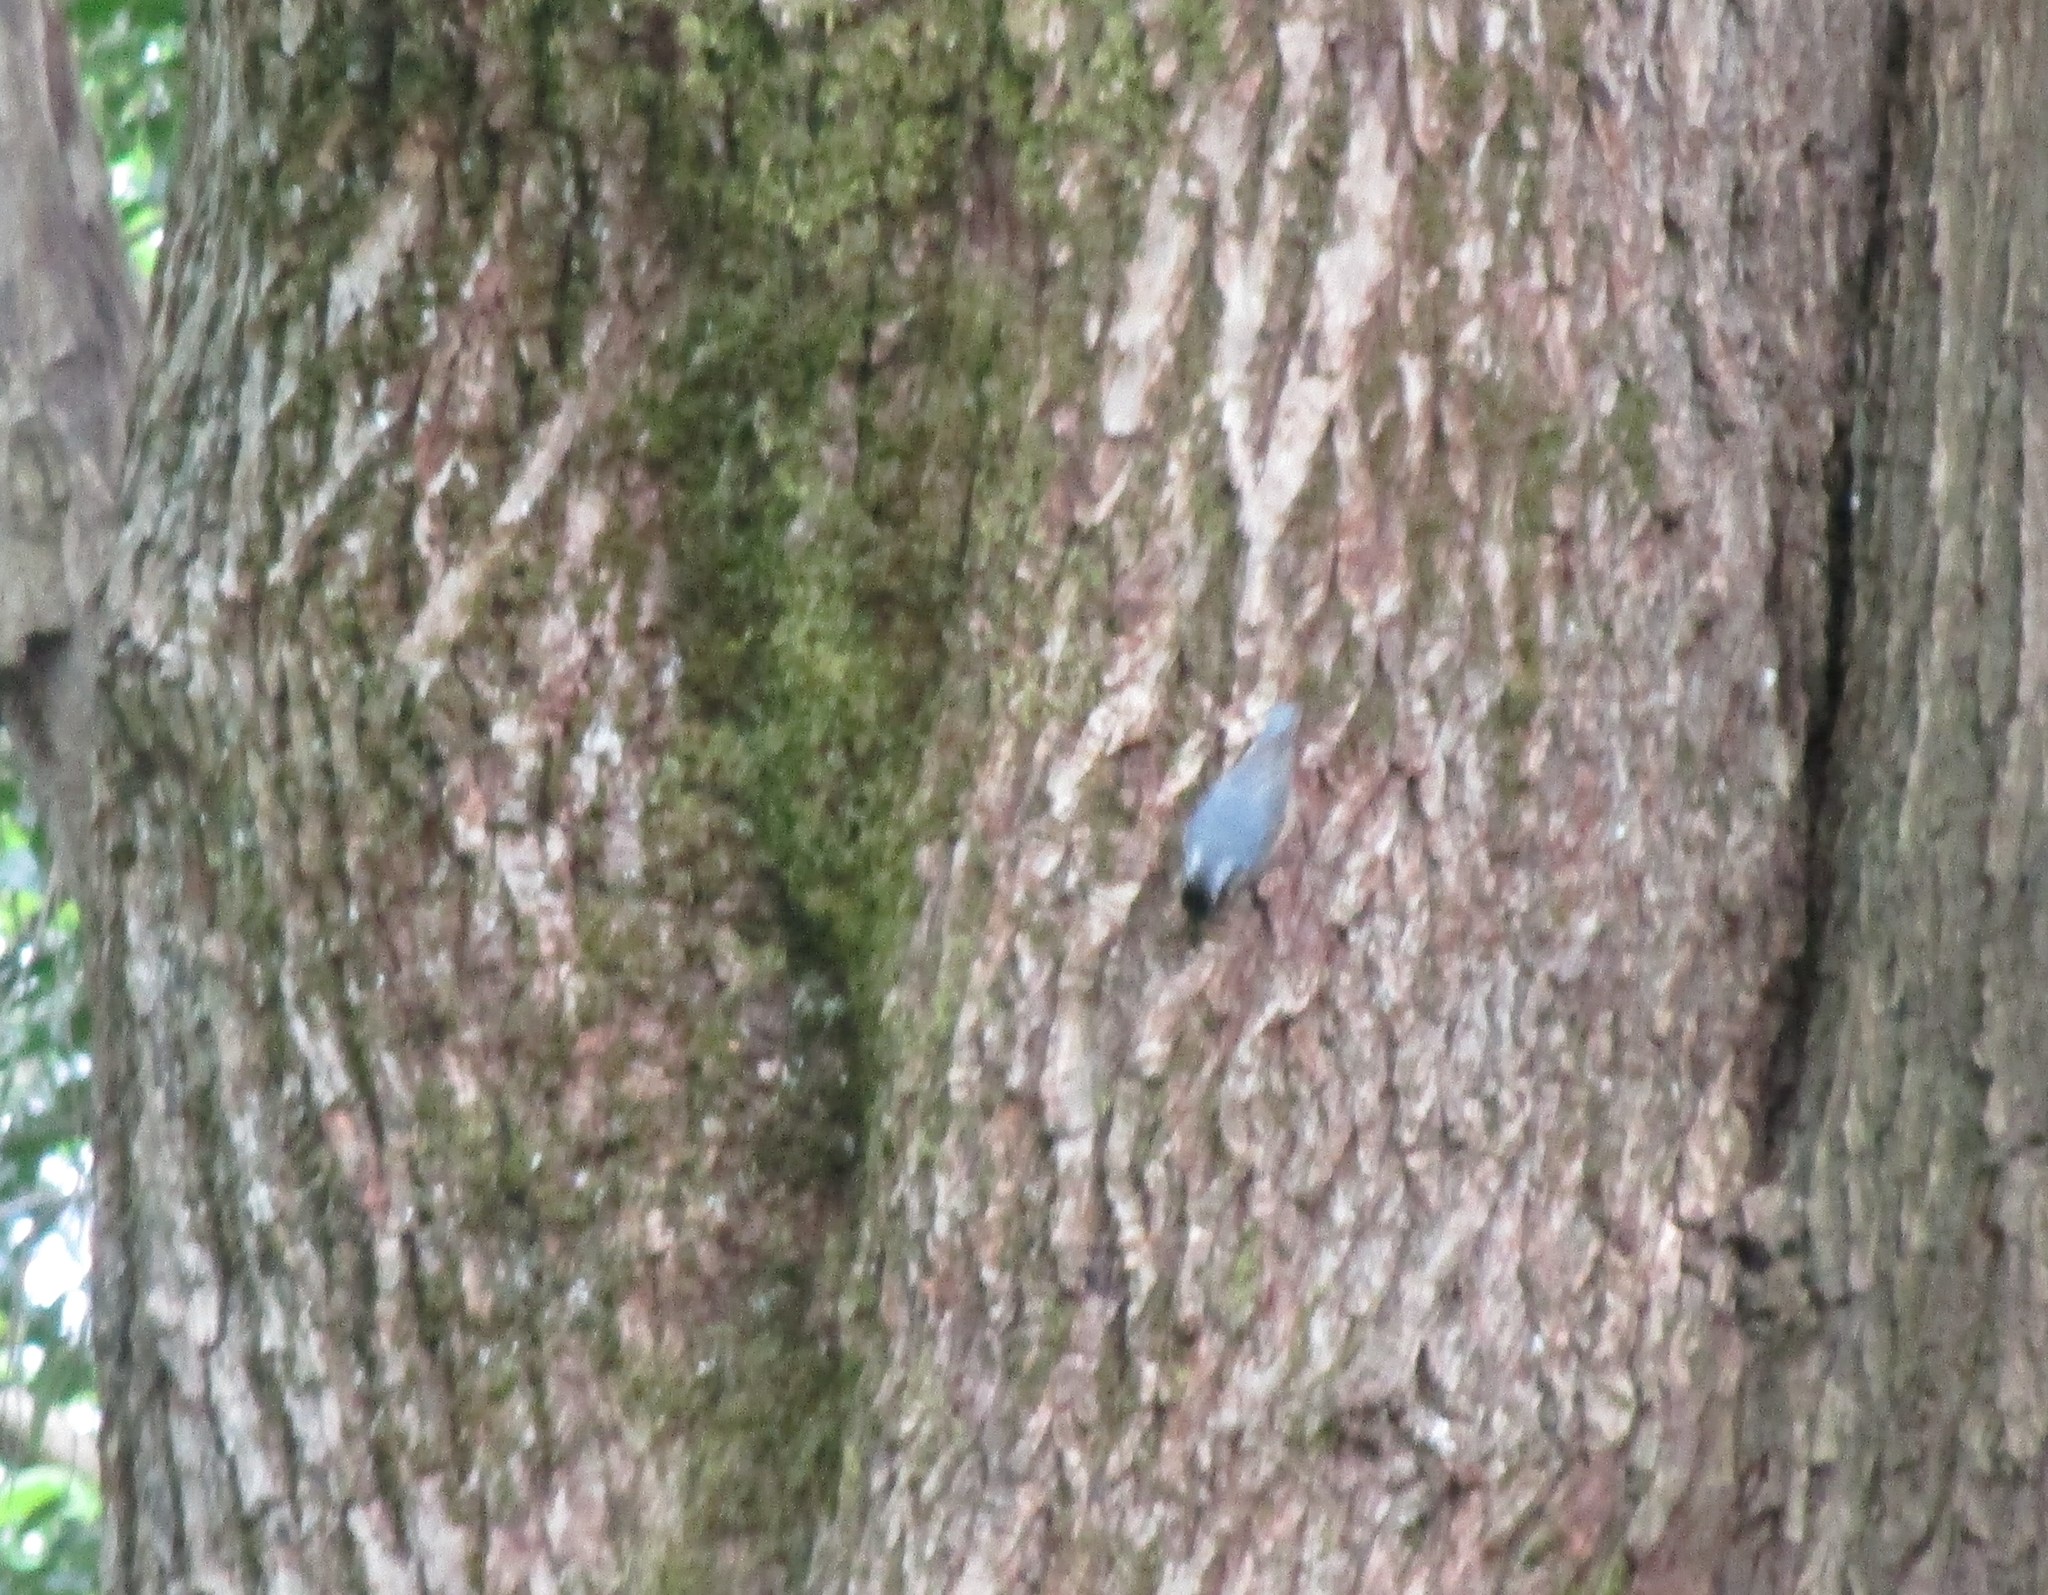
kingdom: Animalia
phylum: Chordata
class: Aves
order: Passeriformes
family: Sittidae
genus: Sitta
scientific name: Sitta canadensis
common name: Red-breasted nuthatch
